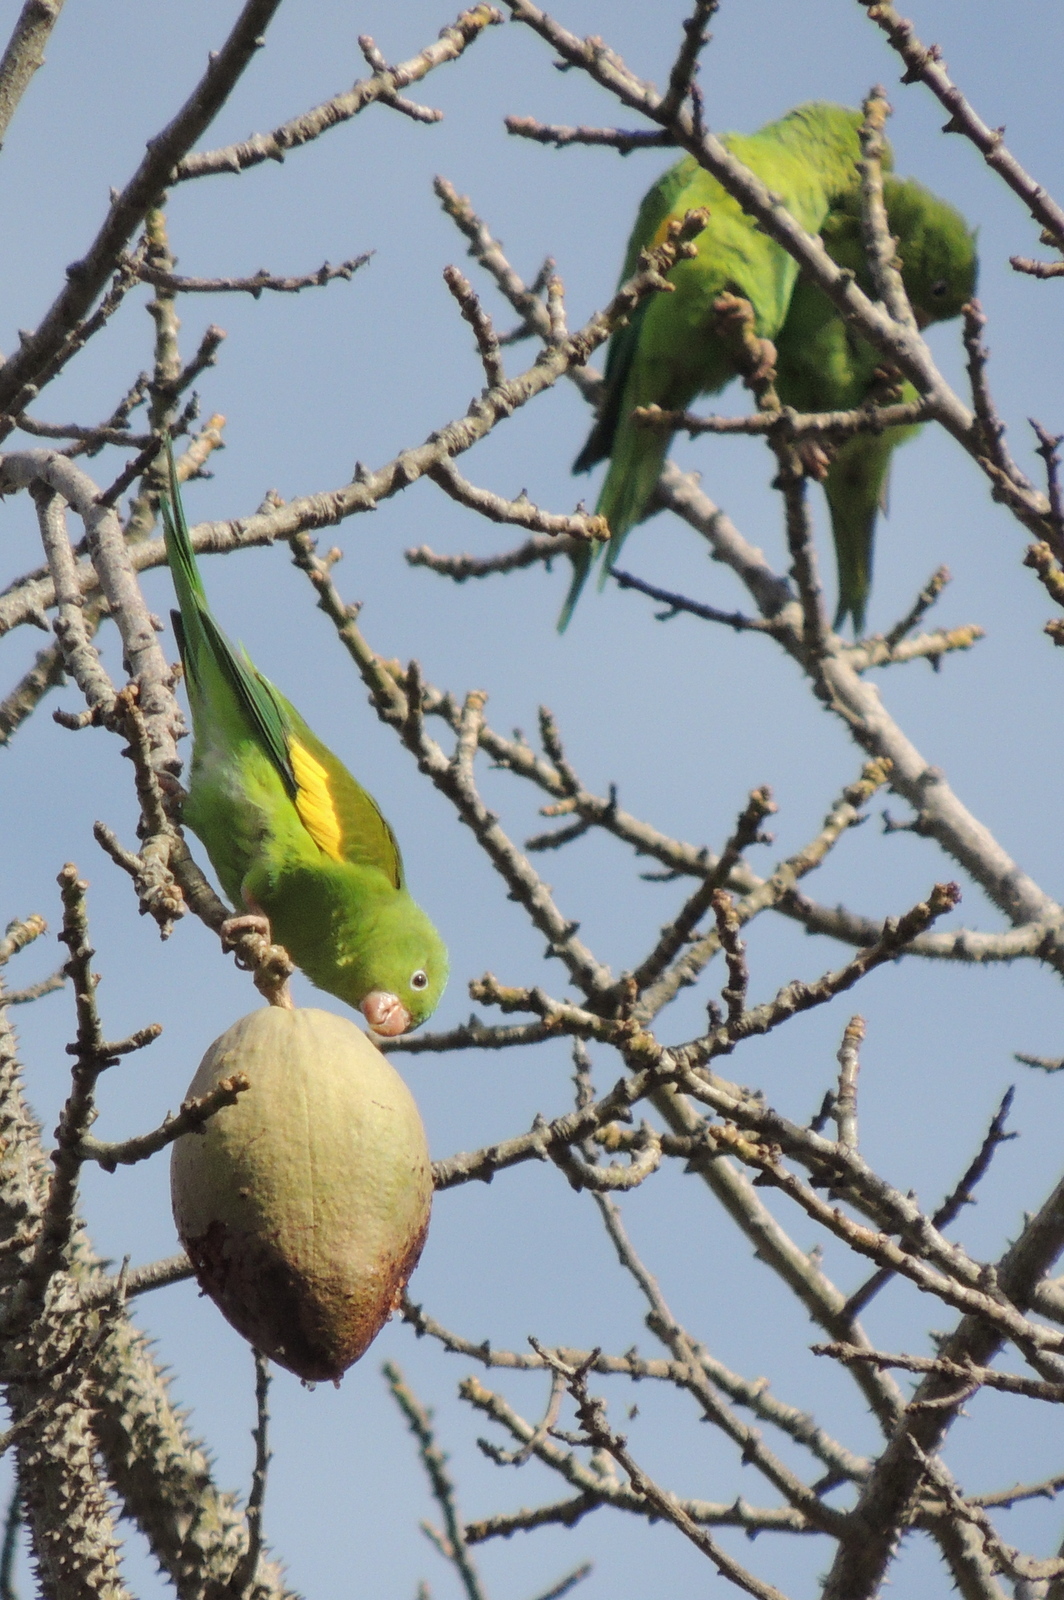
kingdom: Animalia
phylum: Chordata
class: Aves
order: Psittaciformes
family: Psittacidae
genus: Brotogeris
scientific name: Brotogeris chiriri
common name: Yellow-chevroned parakeet
